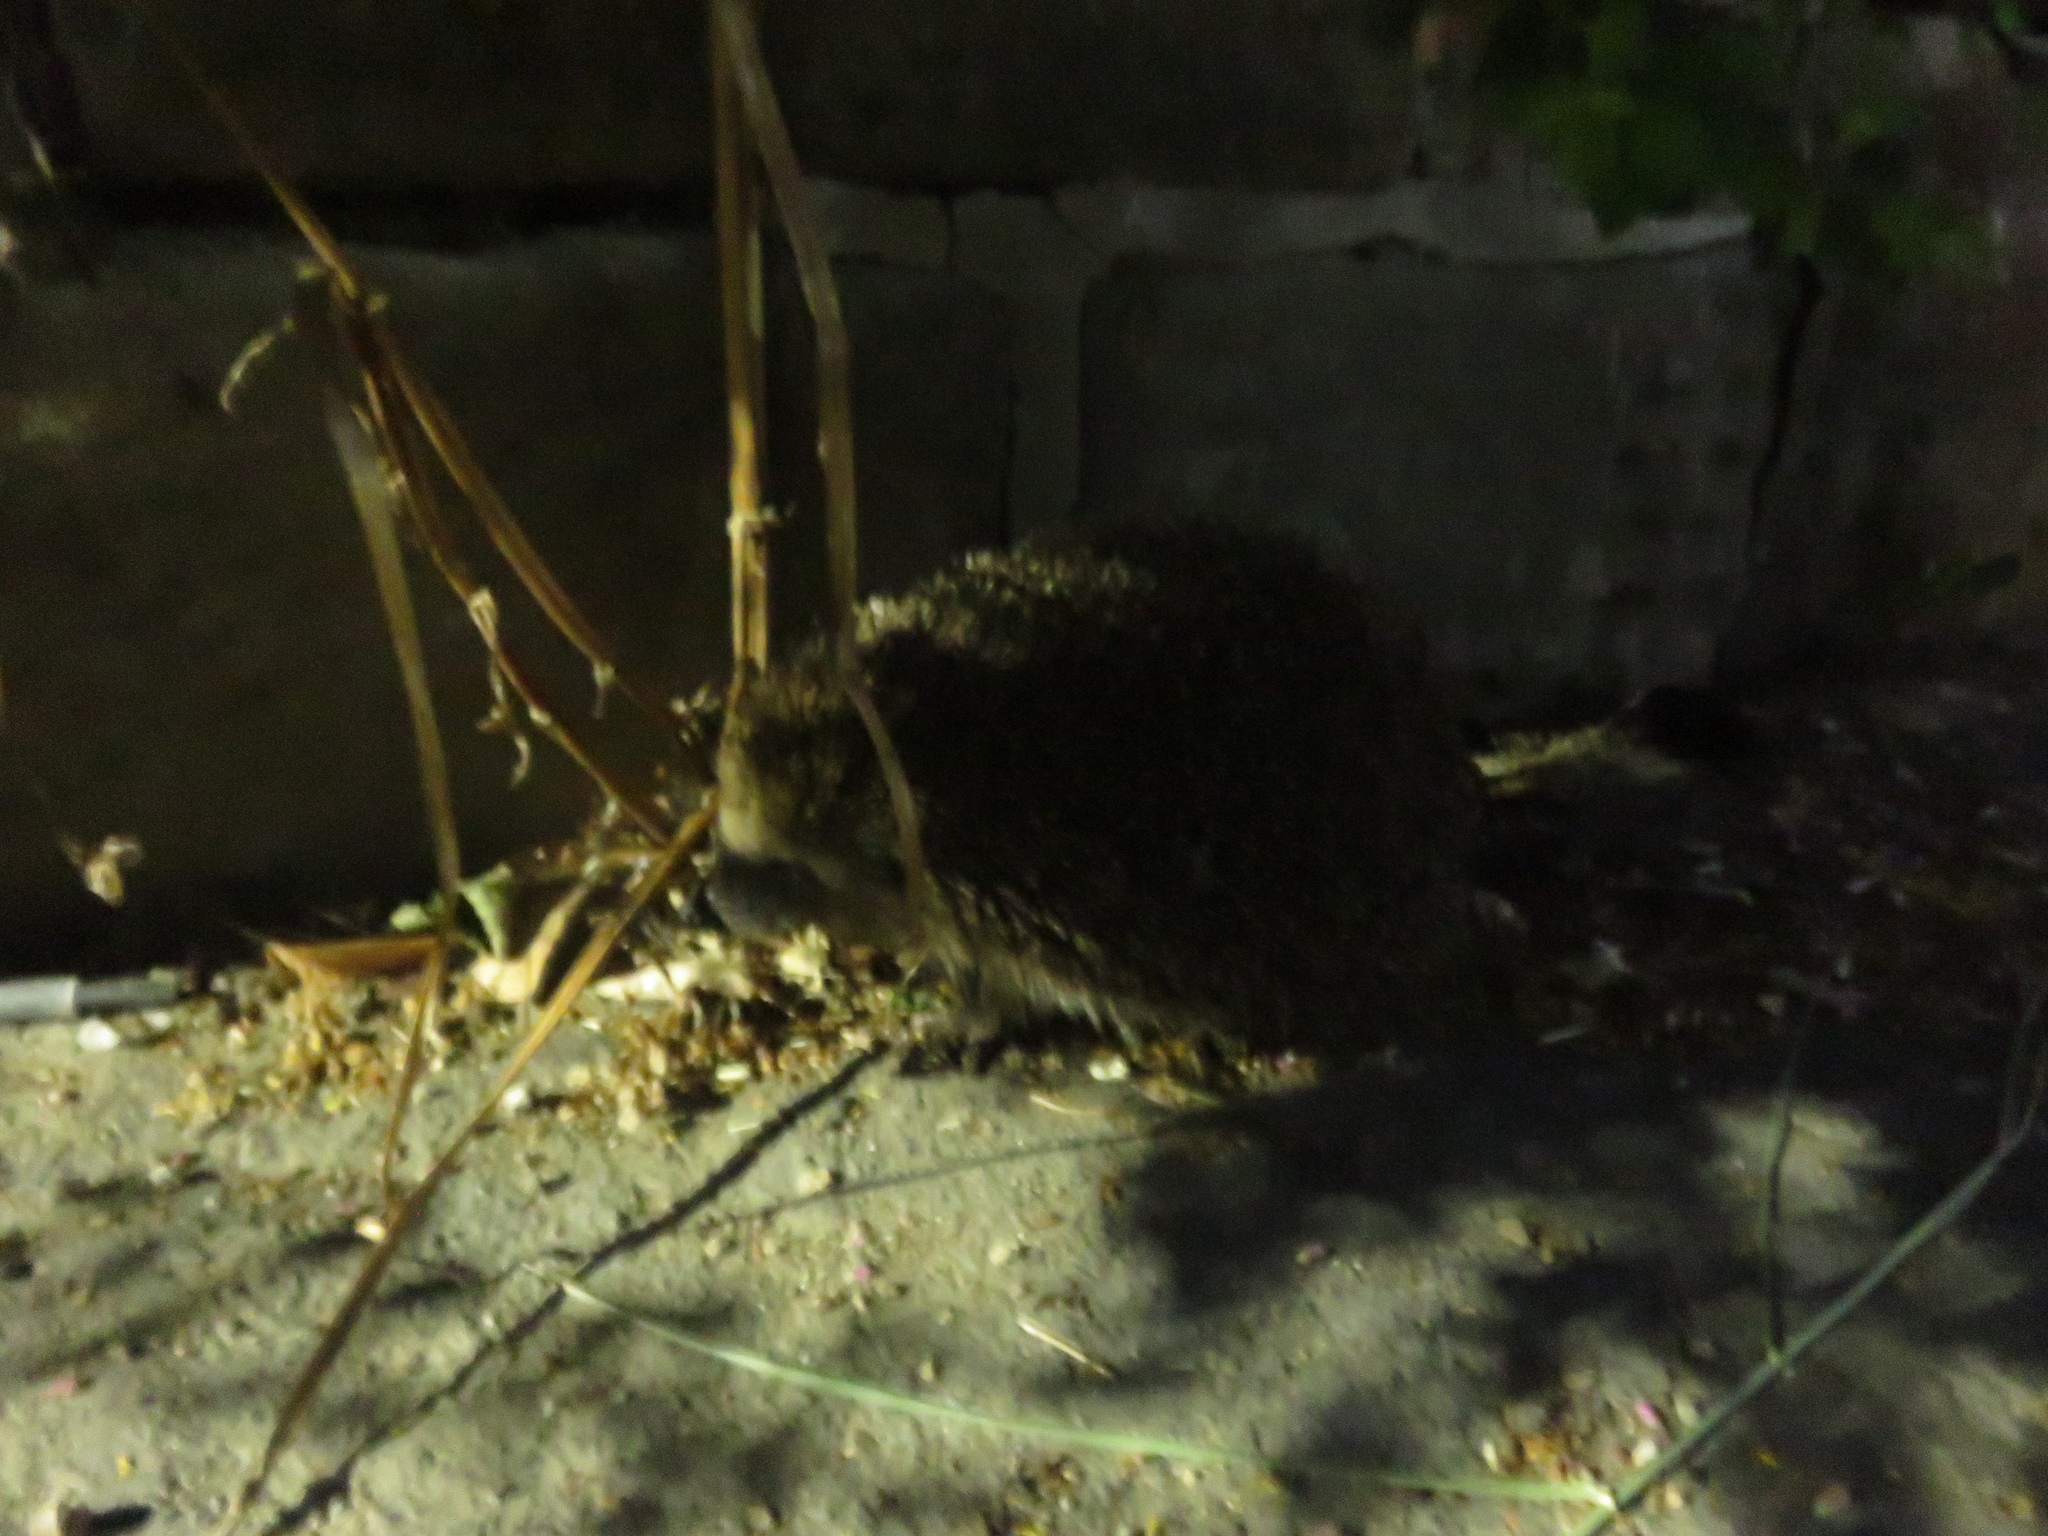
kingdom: Animalia
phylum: Chordata
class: Mammalia
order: Erinaceomorpha
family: Erinaceidae
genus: Erinaceus
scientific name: Erinaceus europaeus
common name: West european hedgehog
